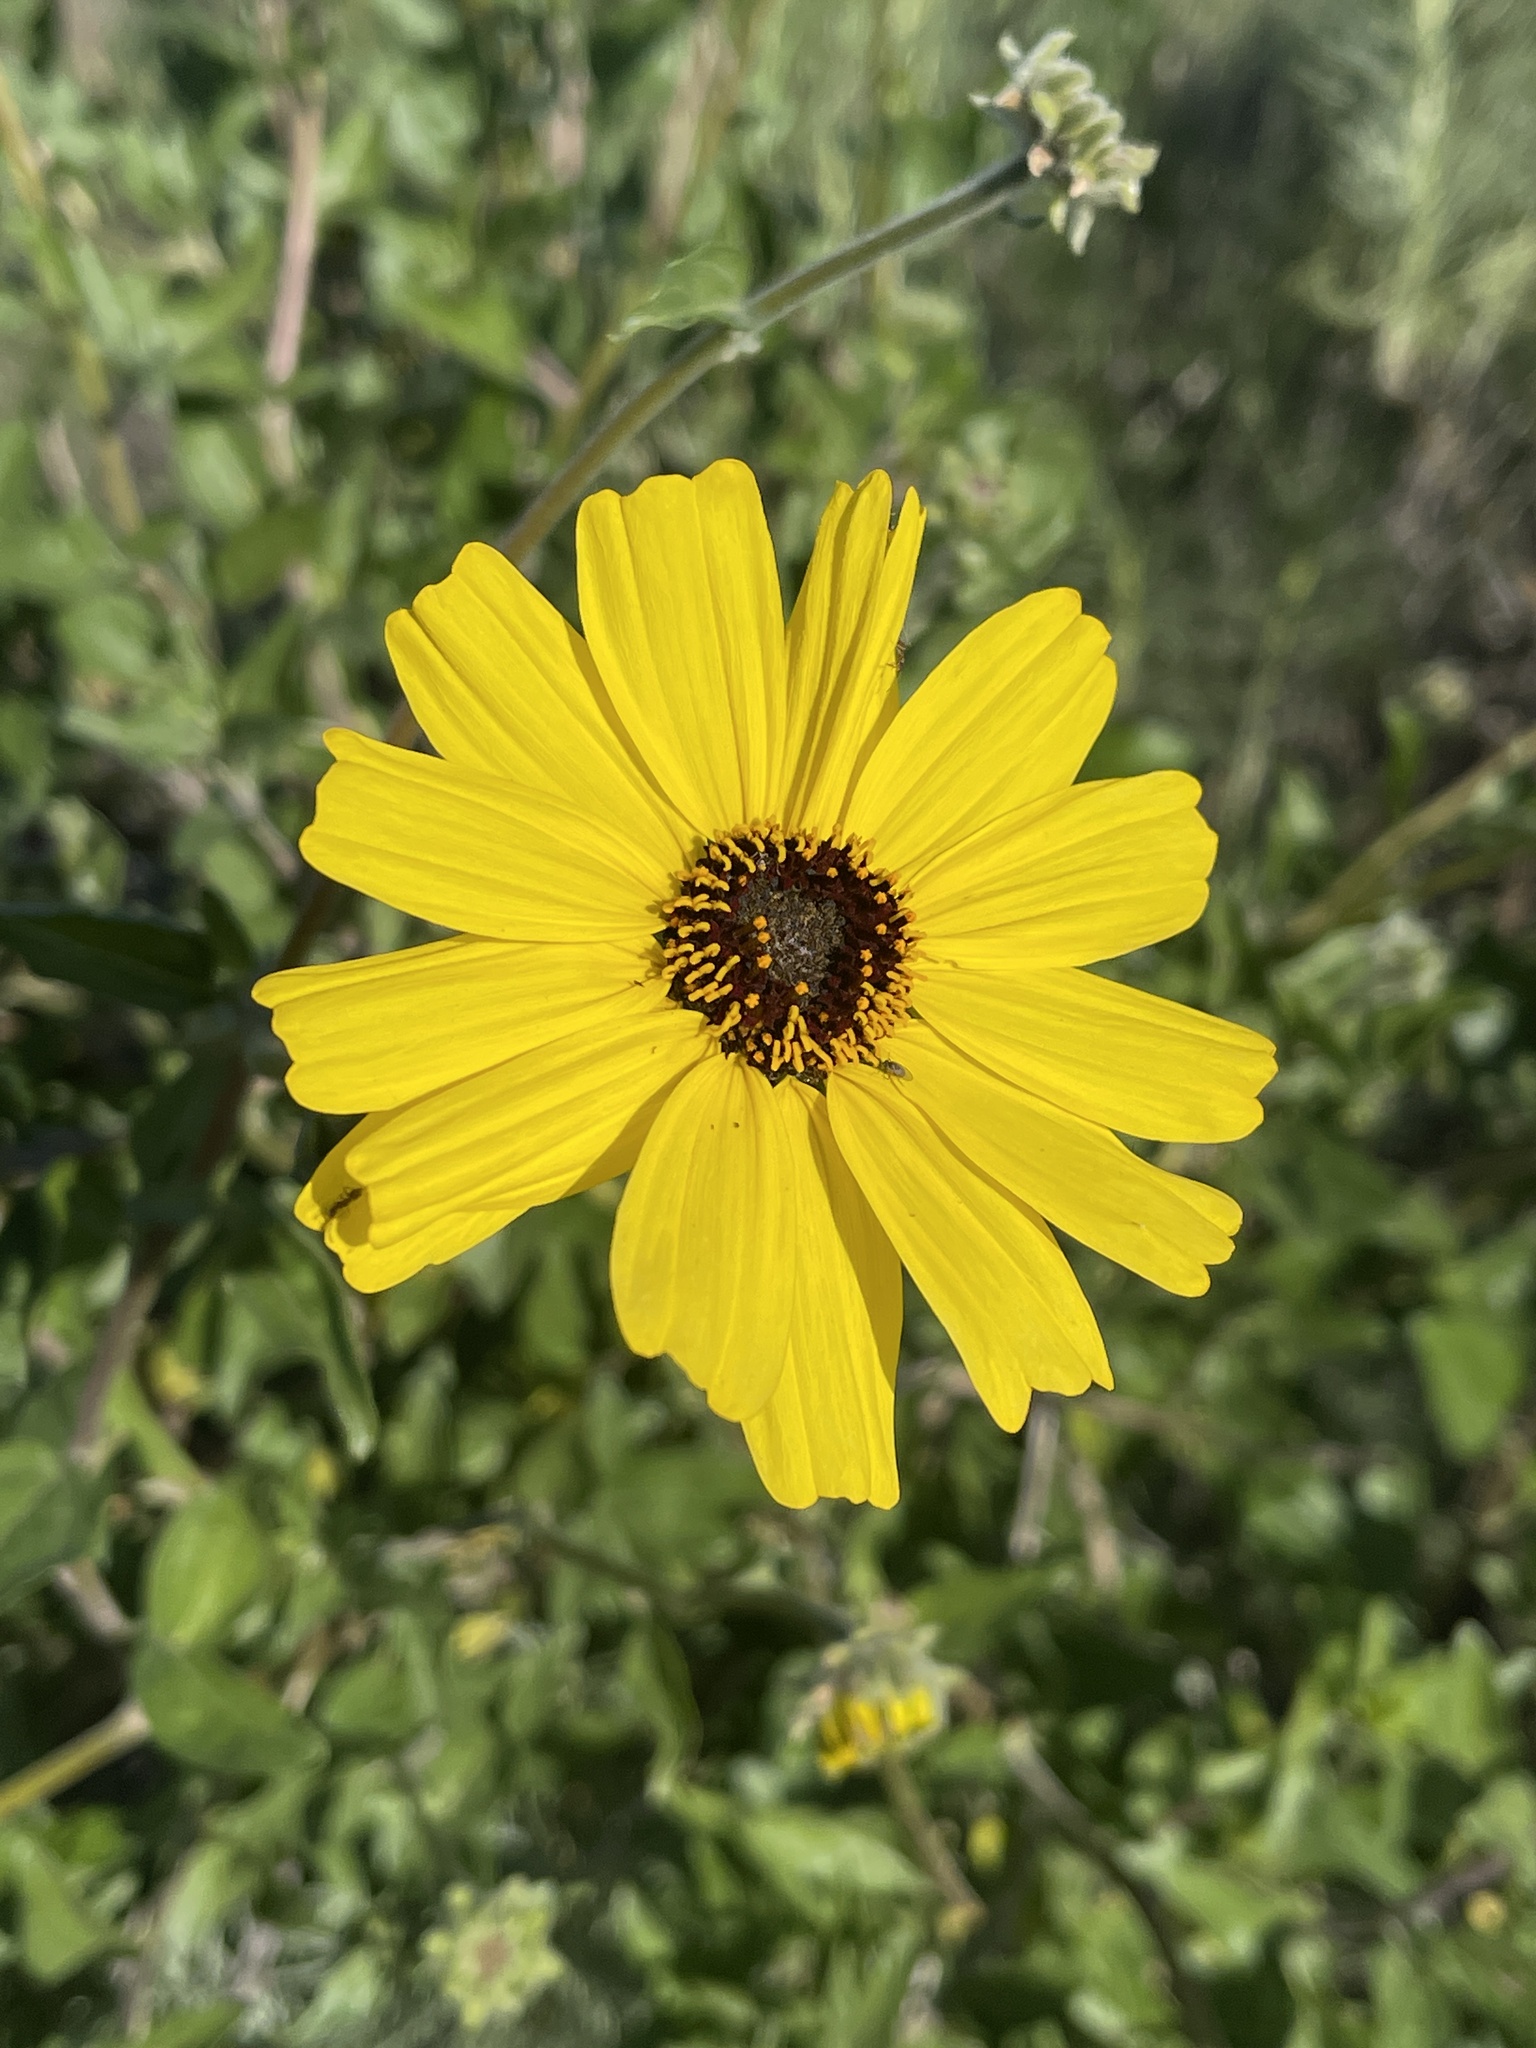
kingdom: Plantae
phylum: Tracheophyta
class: Magnoliopsida
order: Asterales
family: Asteraceae
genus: Encelia
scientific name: Encelia californica
